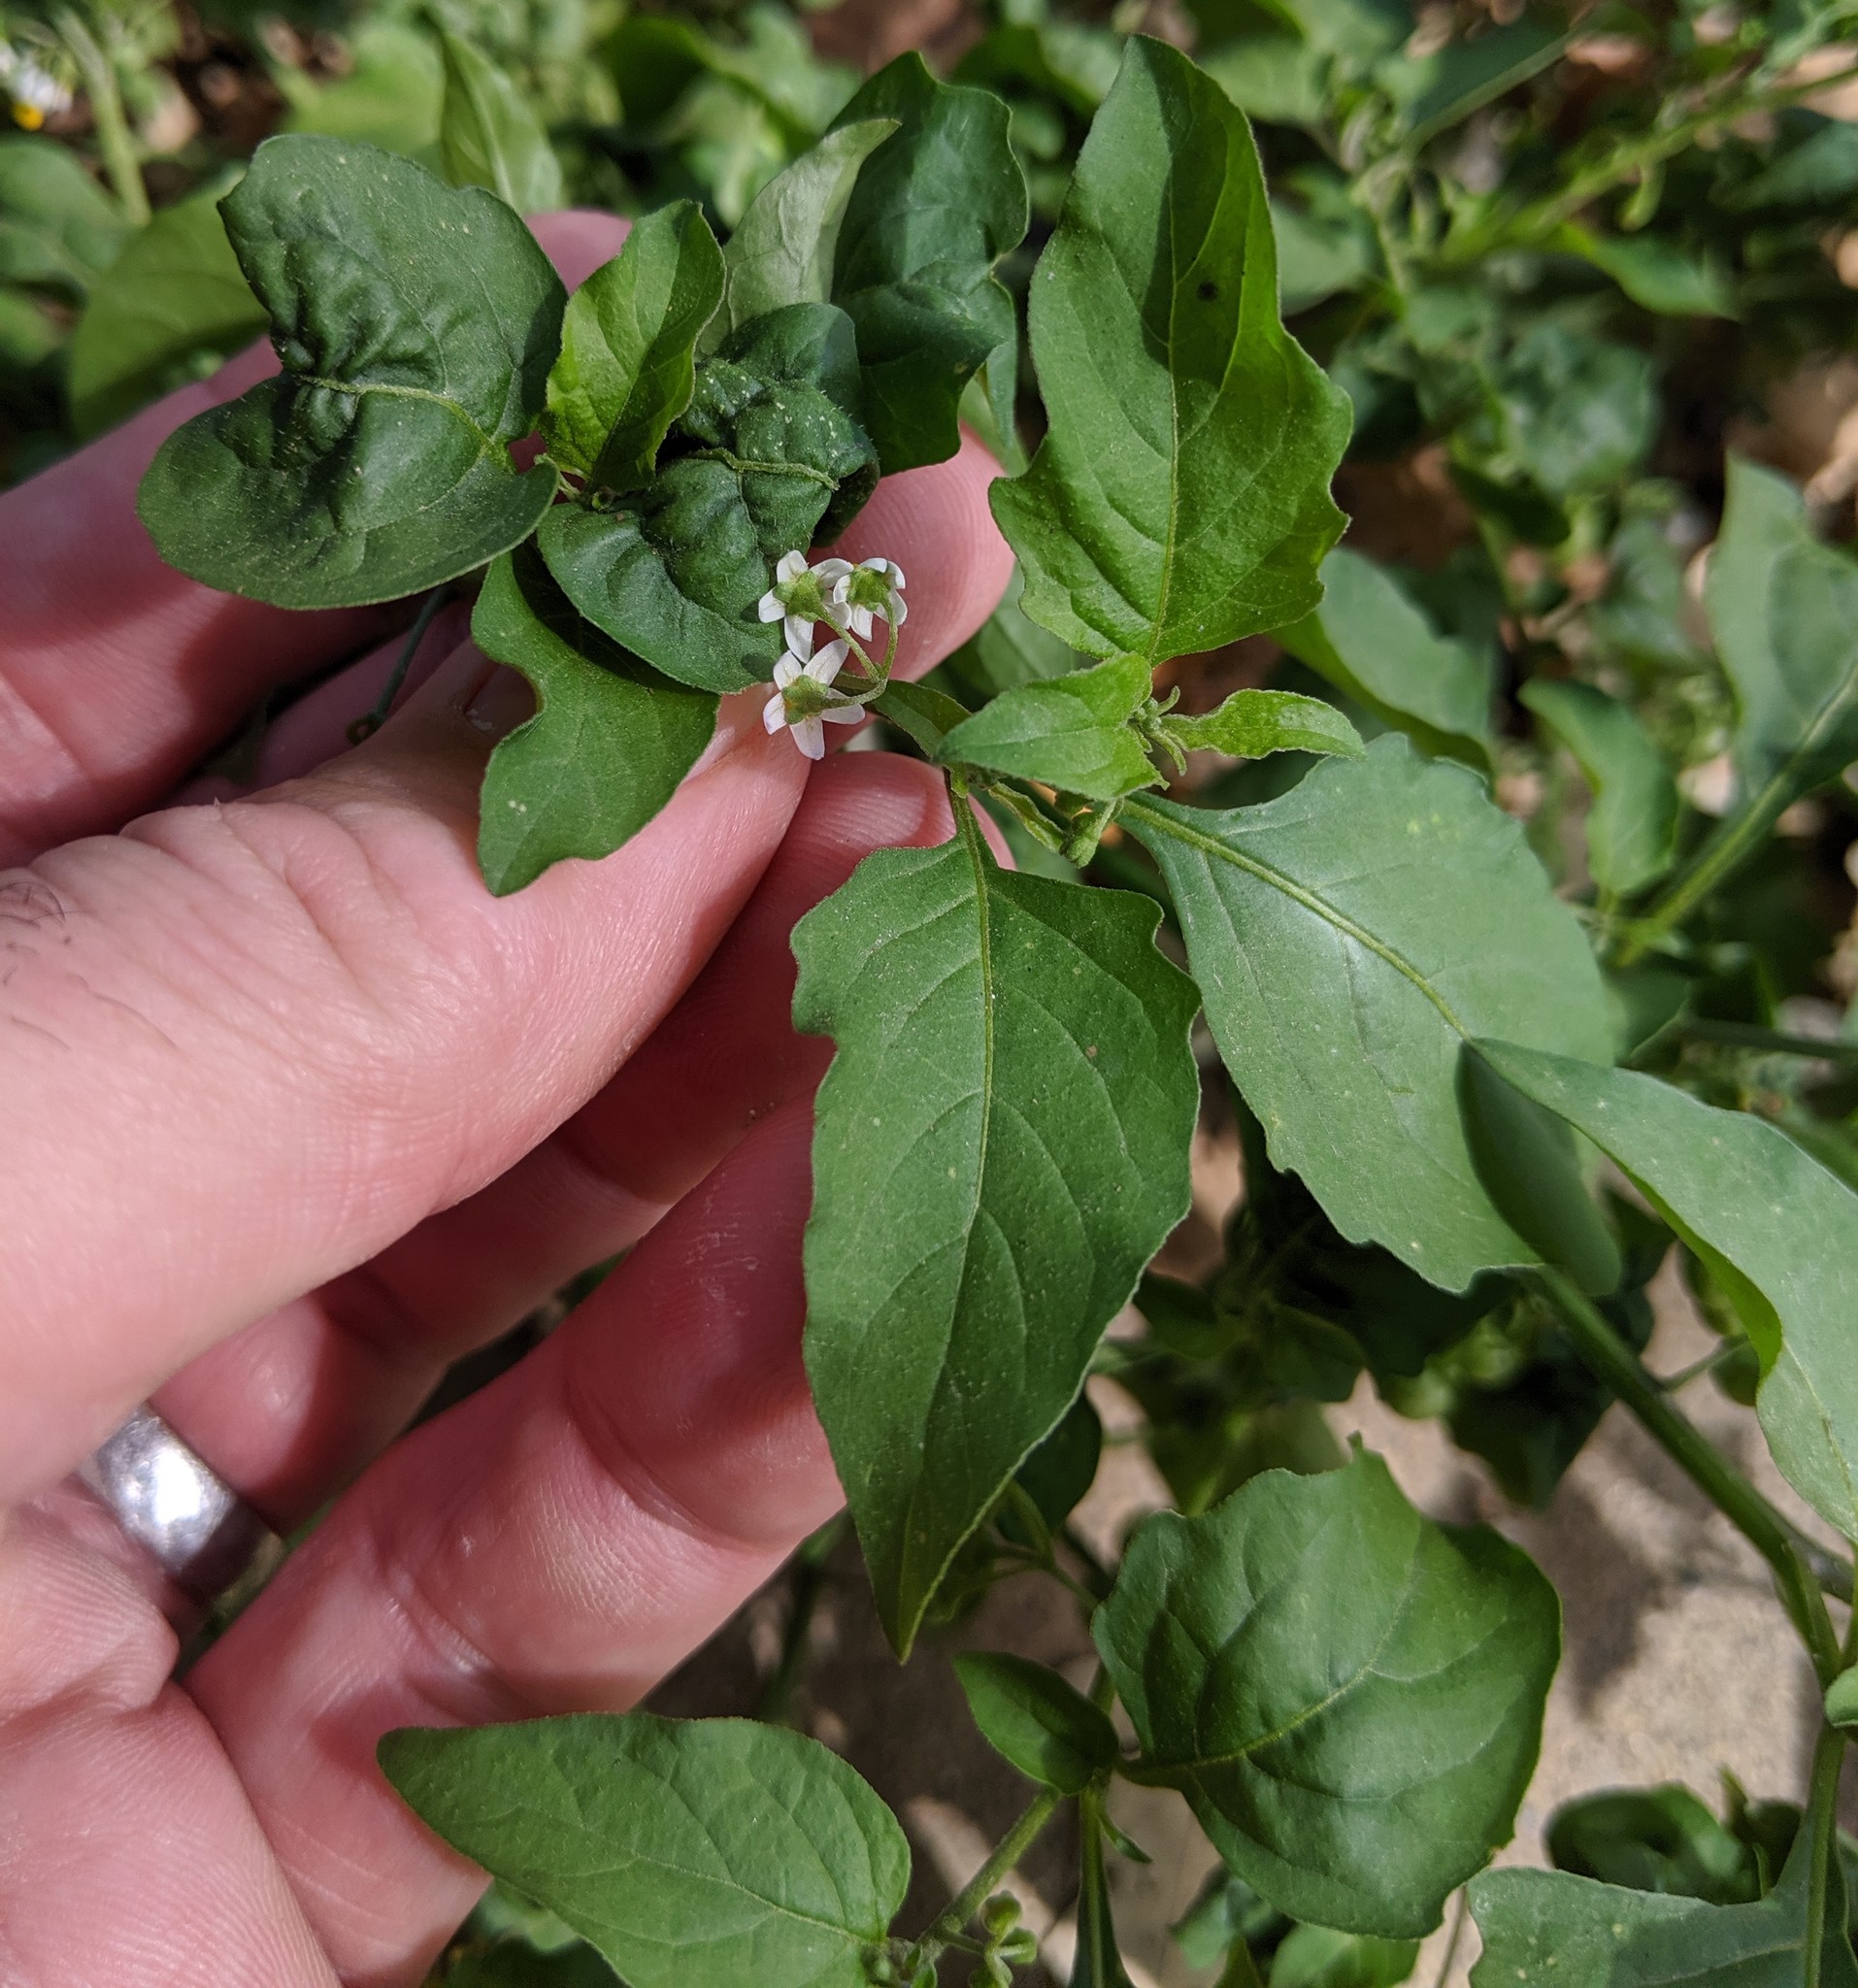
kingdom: Plantae
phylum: Tracheophyta
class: Magnoliopsida
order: Solanales
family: Solanaceae
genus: Solanum
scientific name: Solanum americanum
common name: American black nightshade
